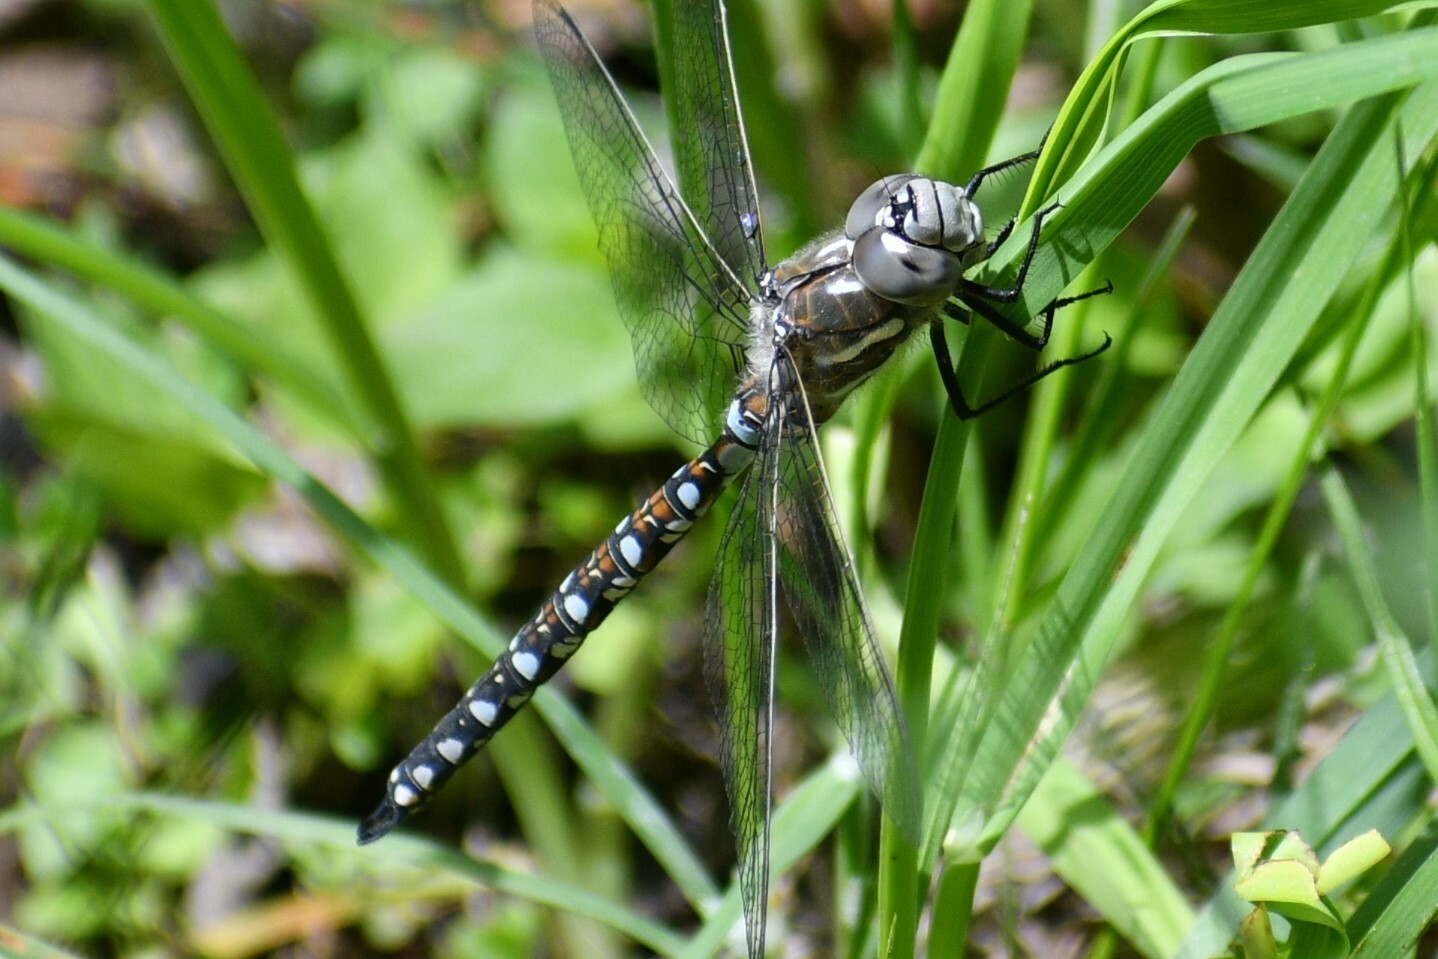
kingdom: Animalia
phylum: Arthropoda
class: Insecta
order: Odonata
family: Aeshnidae
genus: Rhionaeschna
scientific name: Rhionaeschna californica
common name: California darner
